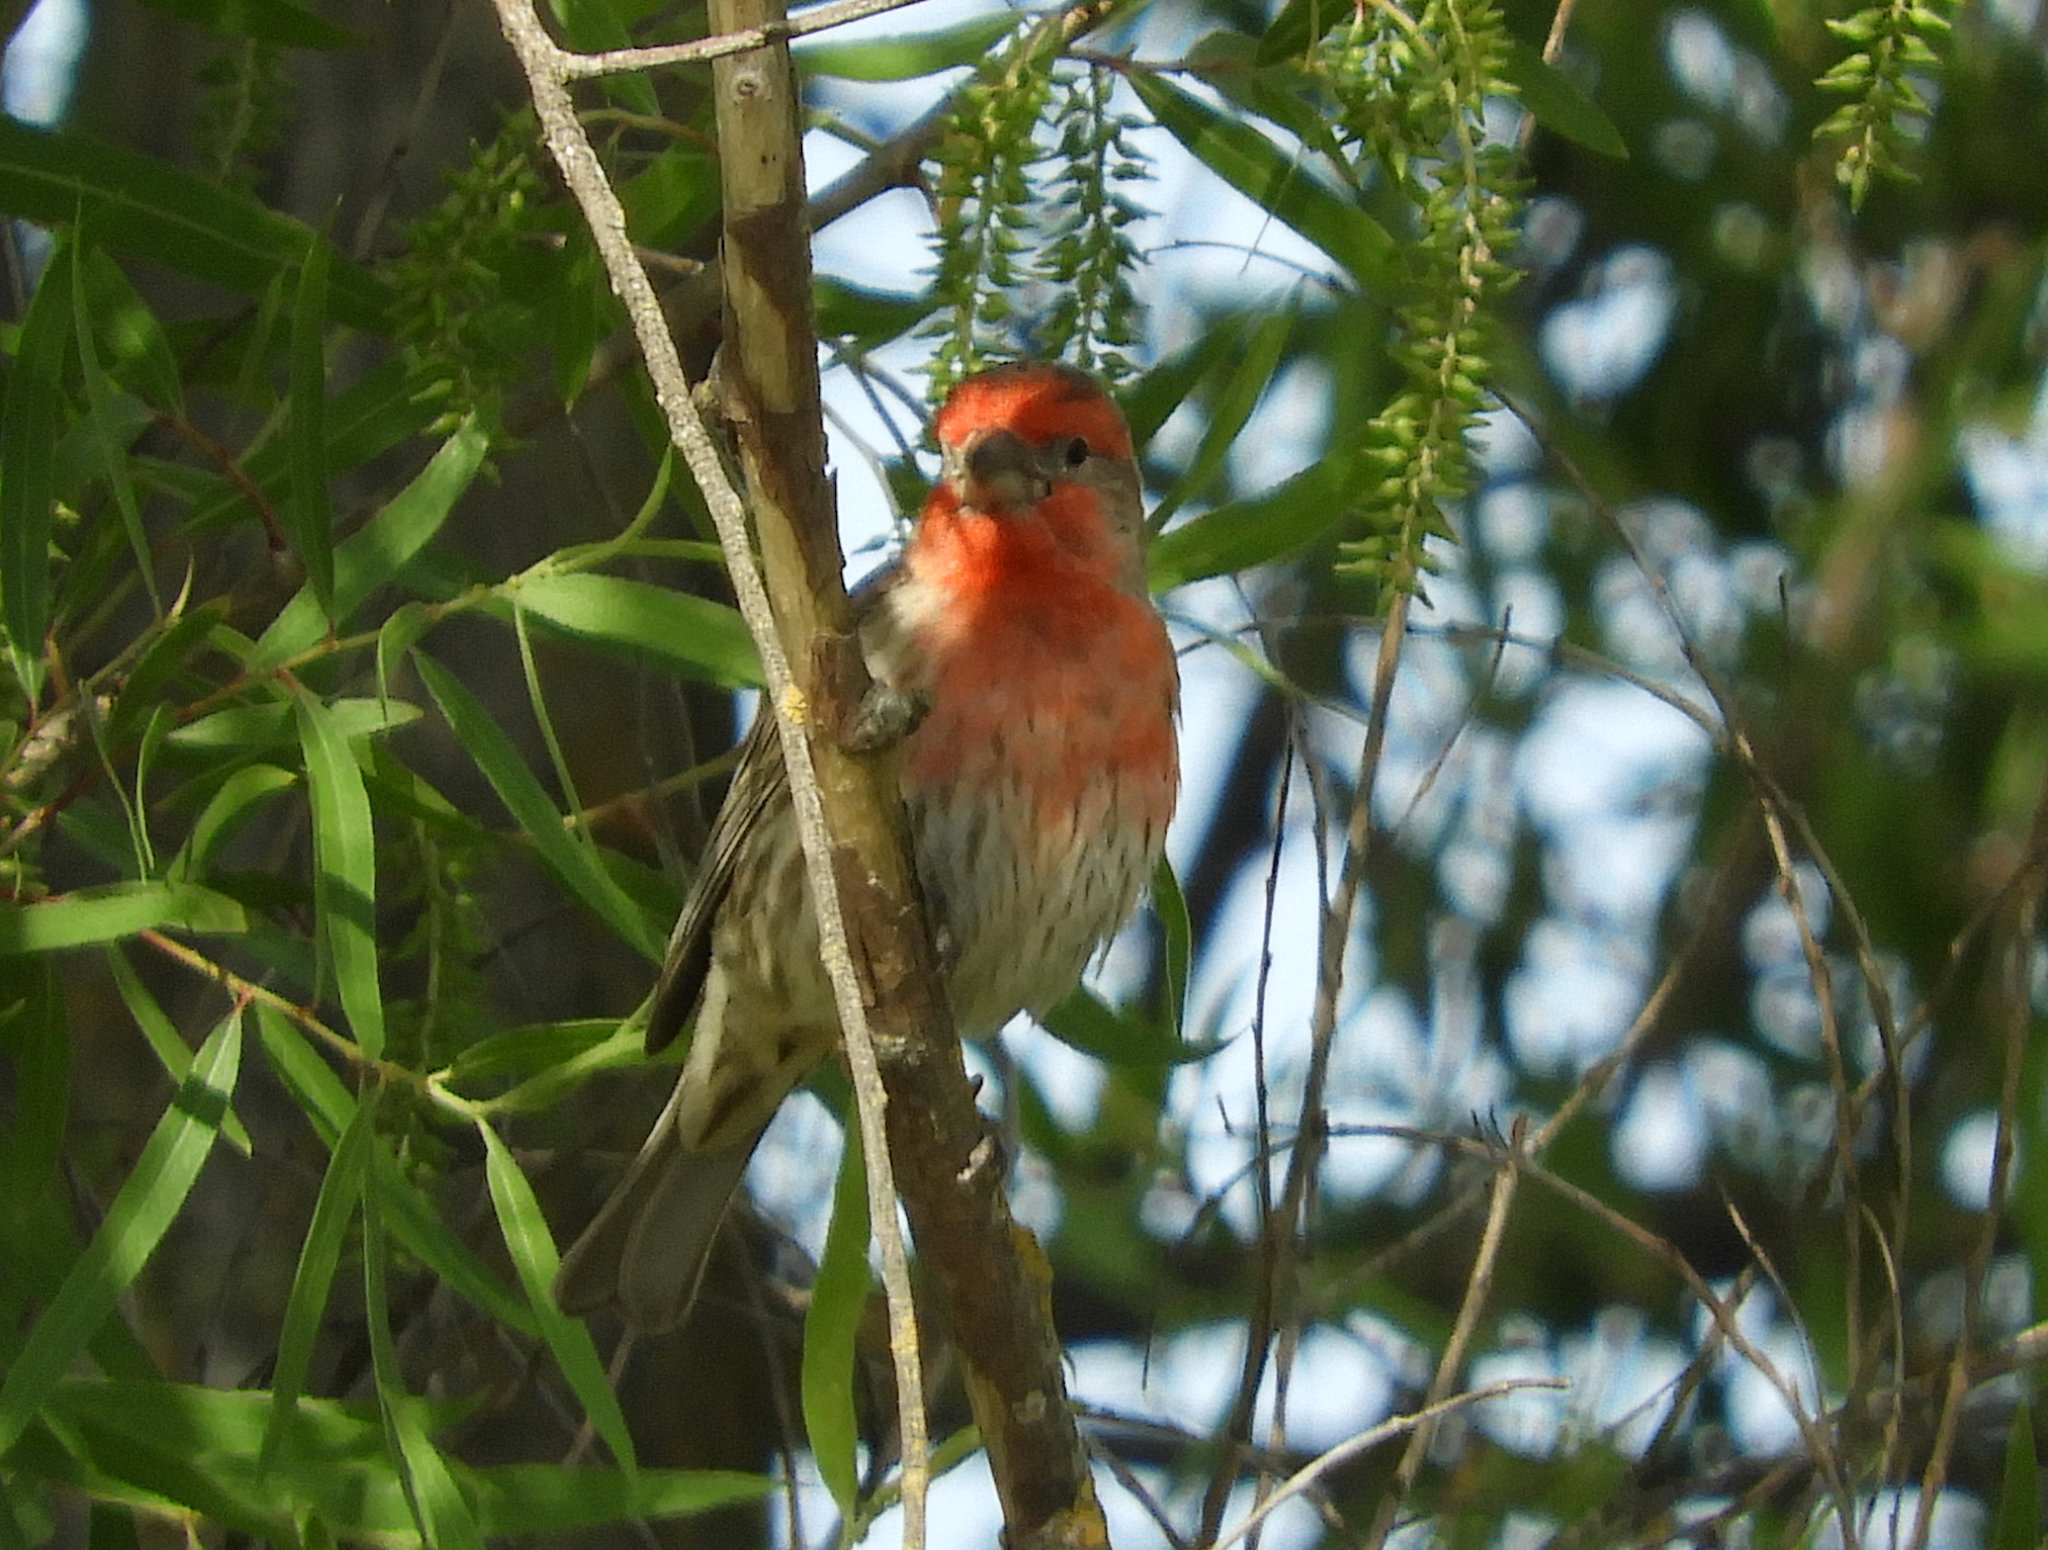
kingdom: Animalia
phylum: Chordata
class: Aves
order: Passeriformes
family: Fringillidae
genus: Haemorhous
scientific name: Haemorhous mexicanus
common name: House finch
